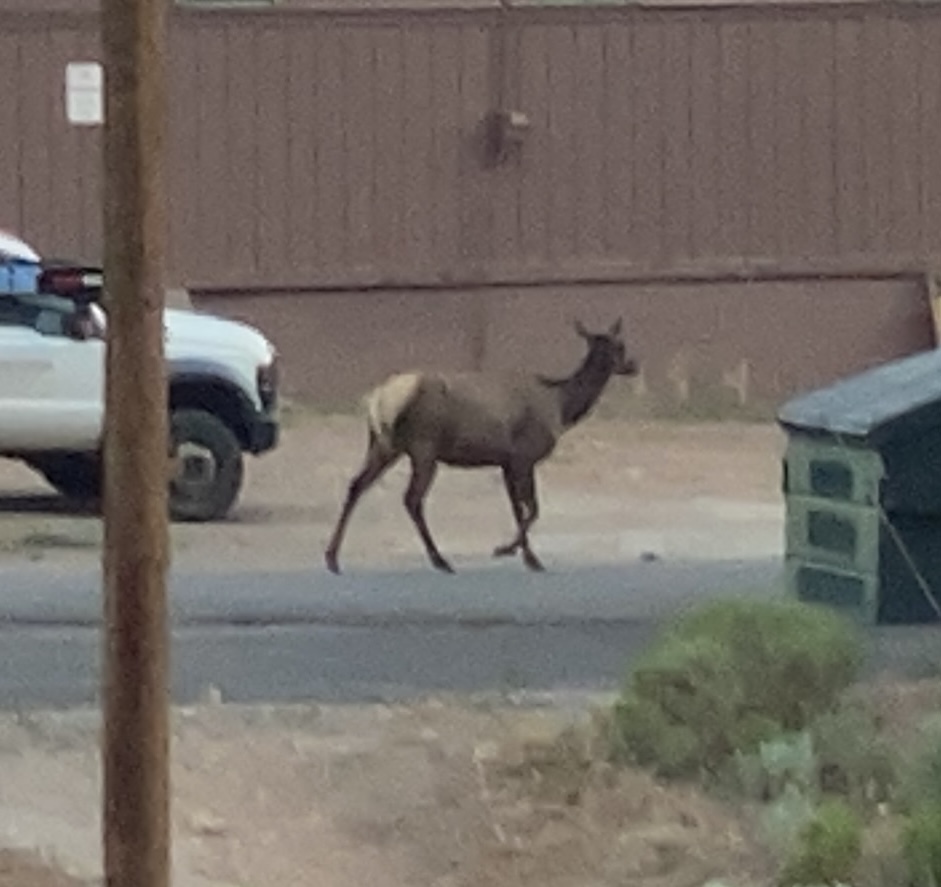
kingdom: Animalia
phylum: Chordata
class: Mammalia
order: Artiodactyla
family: Cervidae
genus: Cervus
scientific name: Cervus elaphus
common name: Red deer
